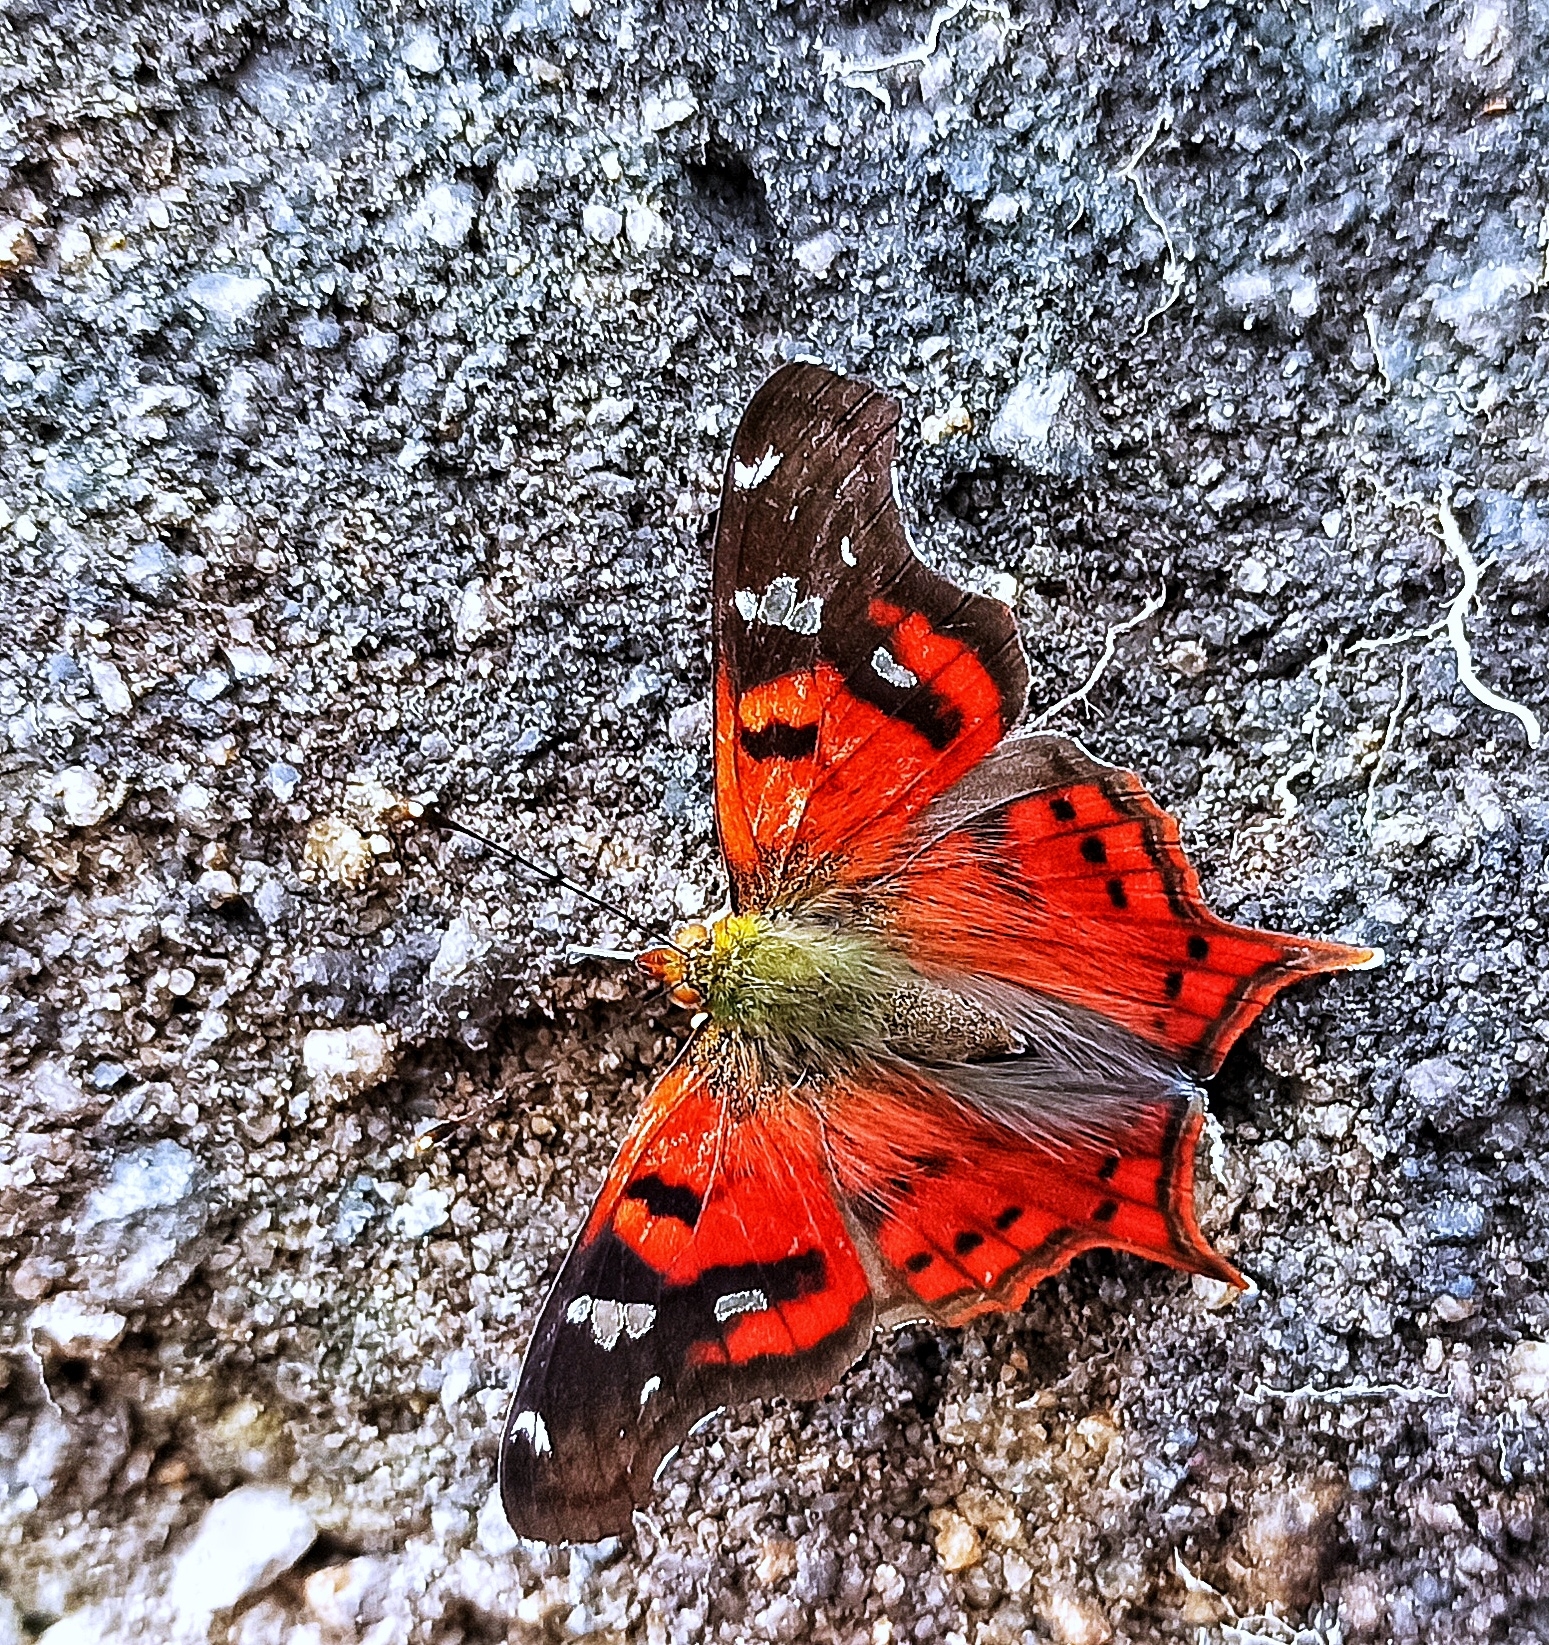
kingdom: Animalia
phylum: Arthropoda
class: Insecta
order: Lepidoptera
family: Nymphalidae
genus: Hypanartia
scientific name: Hypanartia lindigii
